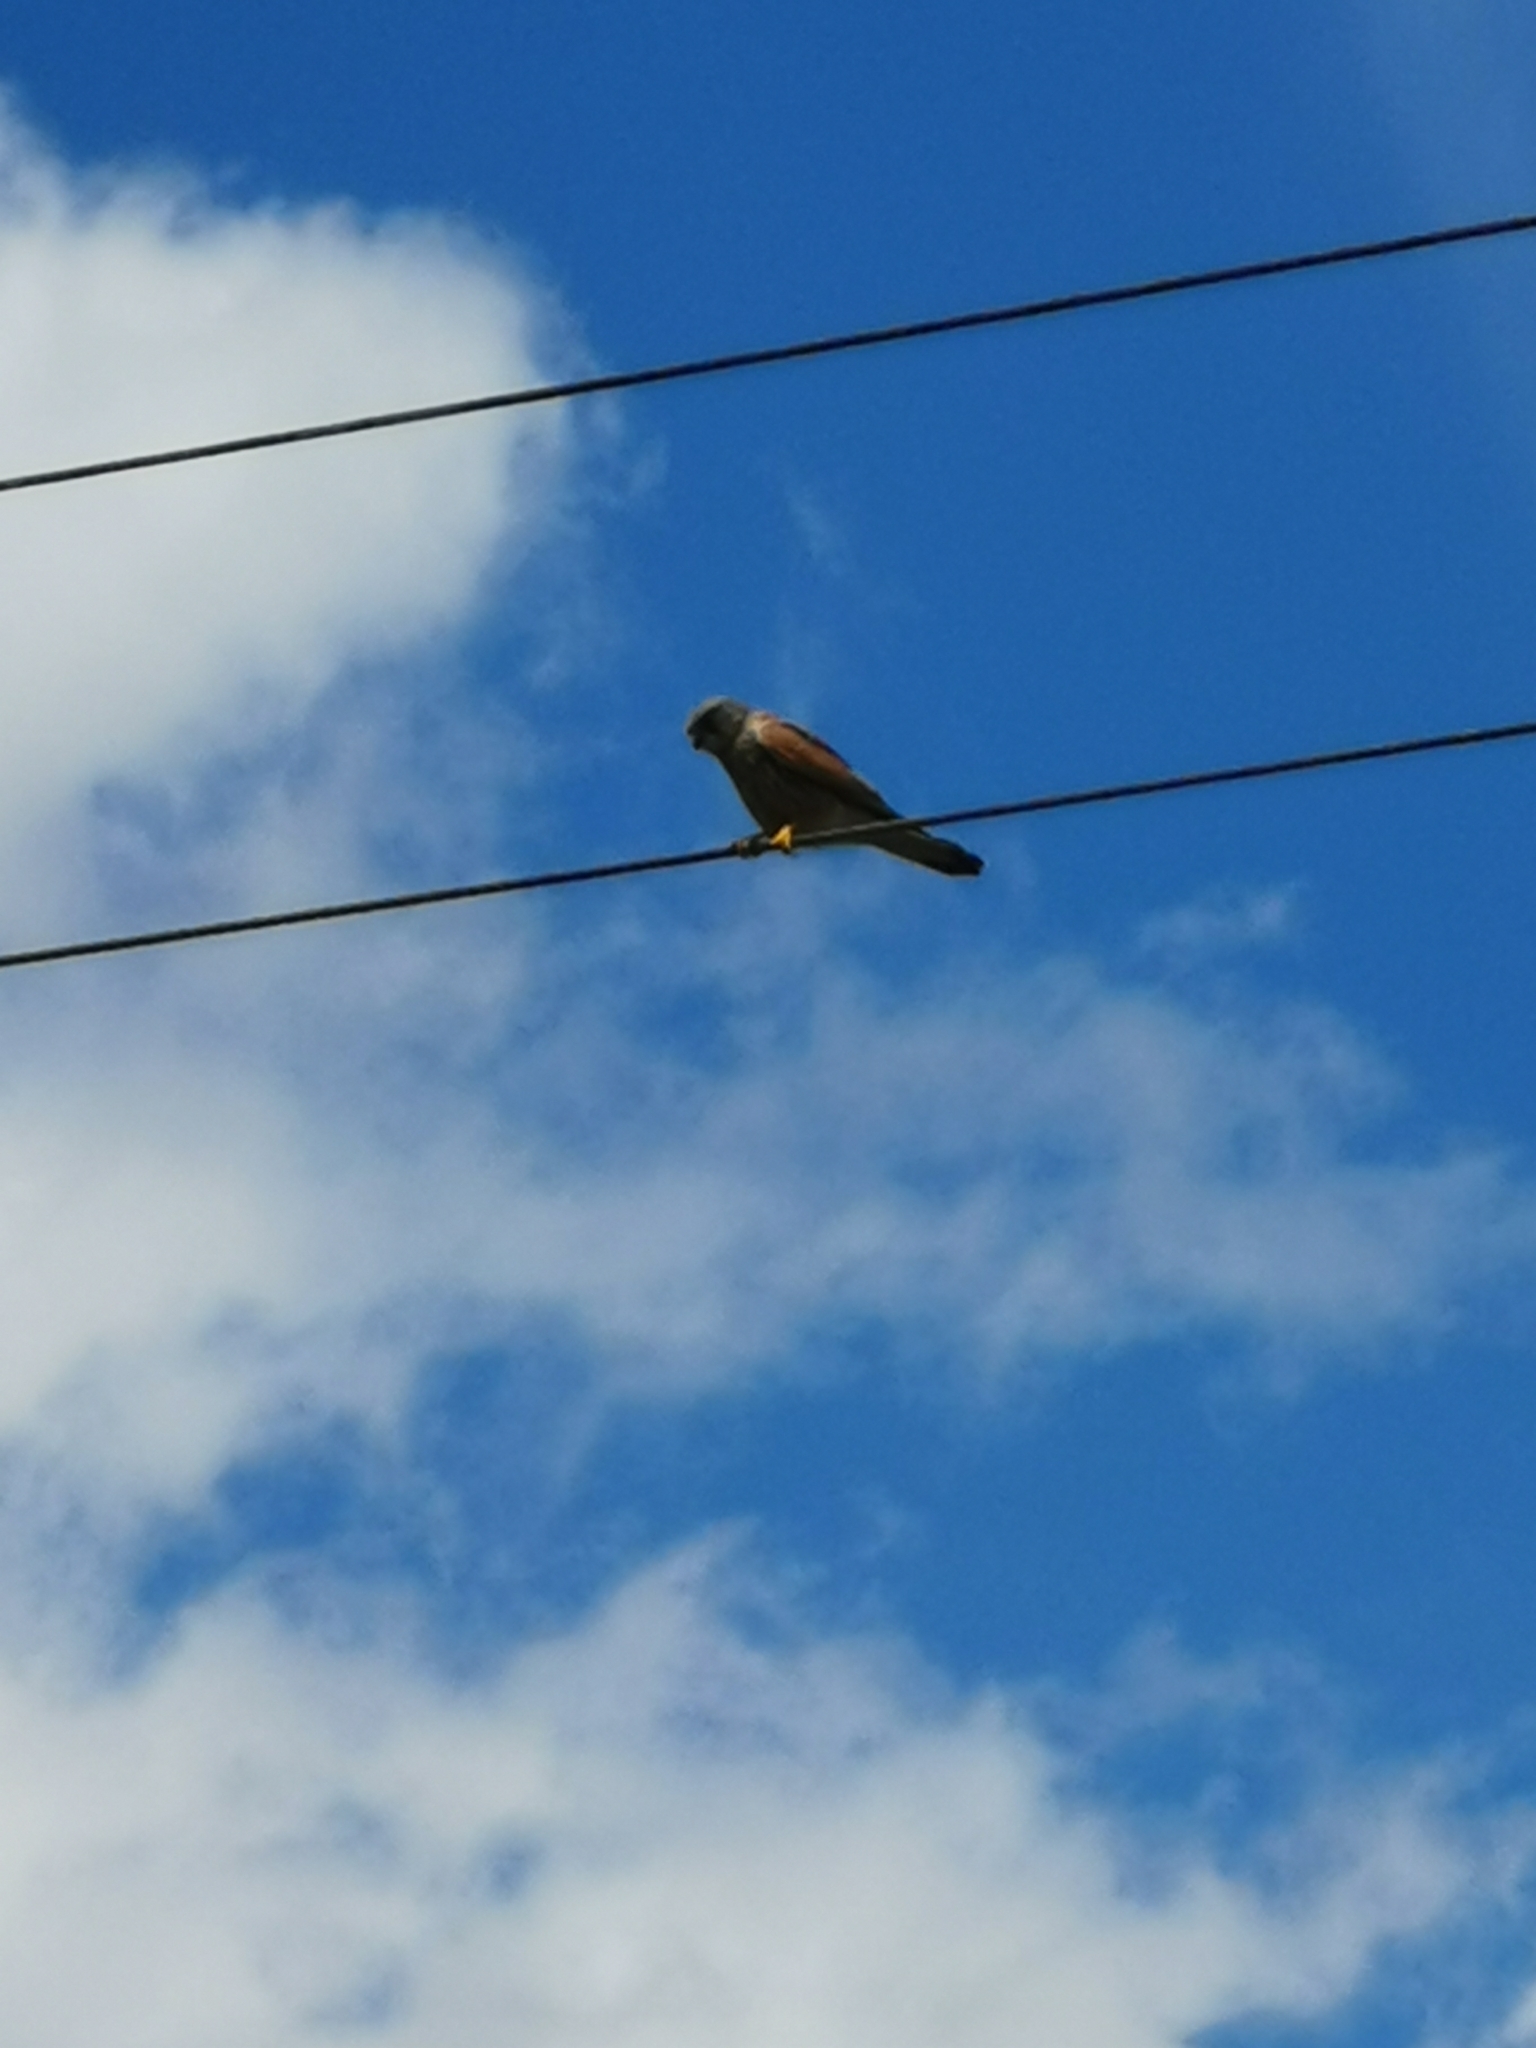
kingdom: Animalia
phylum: Chordata
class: Aves
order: Falconiformes
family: Falconidae
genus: Falco
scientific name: Falco tinnunculus
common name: Common kestrel
